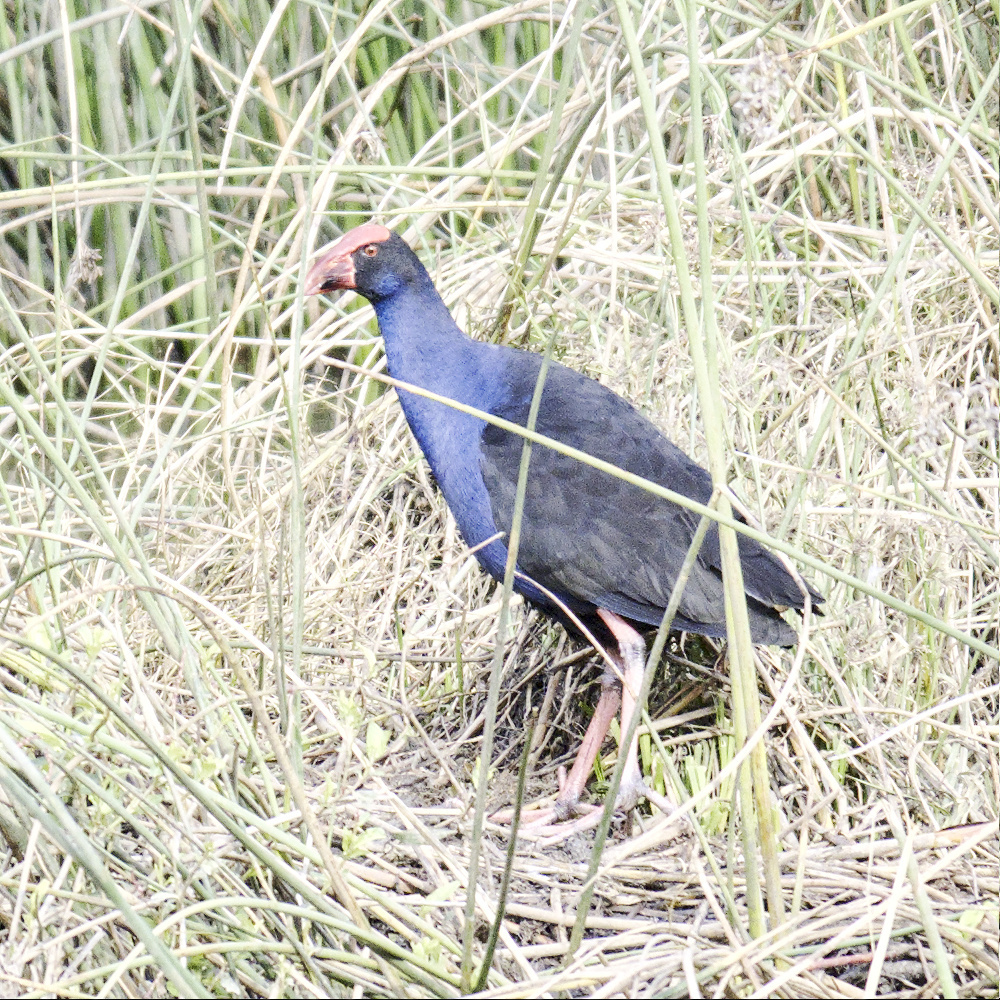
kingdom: Animalia
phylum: Chordata
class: Aves
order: Gruiformes
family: Rallidae
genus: Porphyrio
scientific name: Porphyrio melanotus
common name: Australasian swamphen
